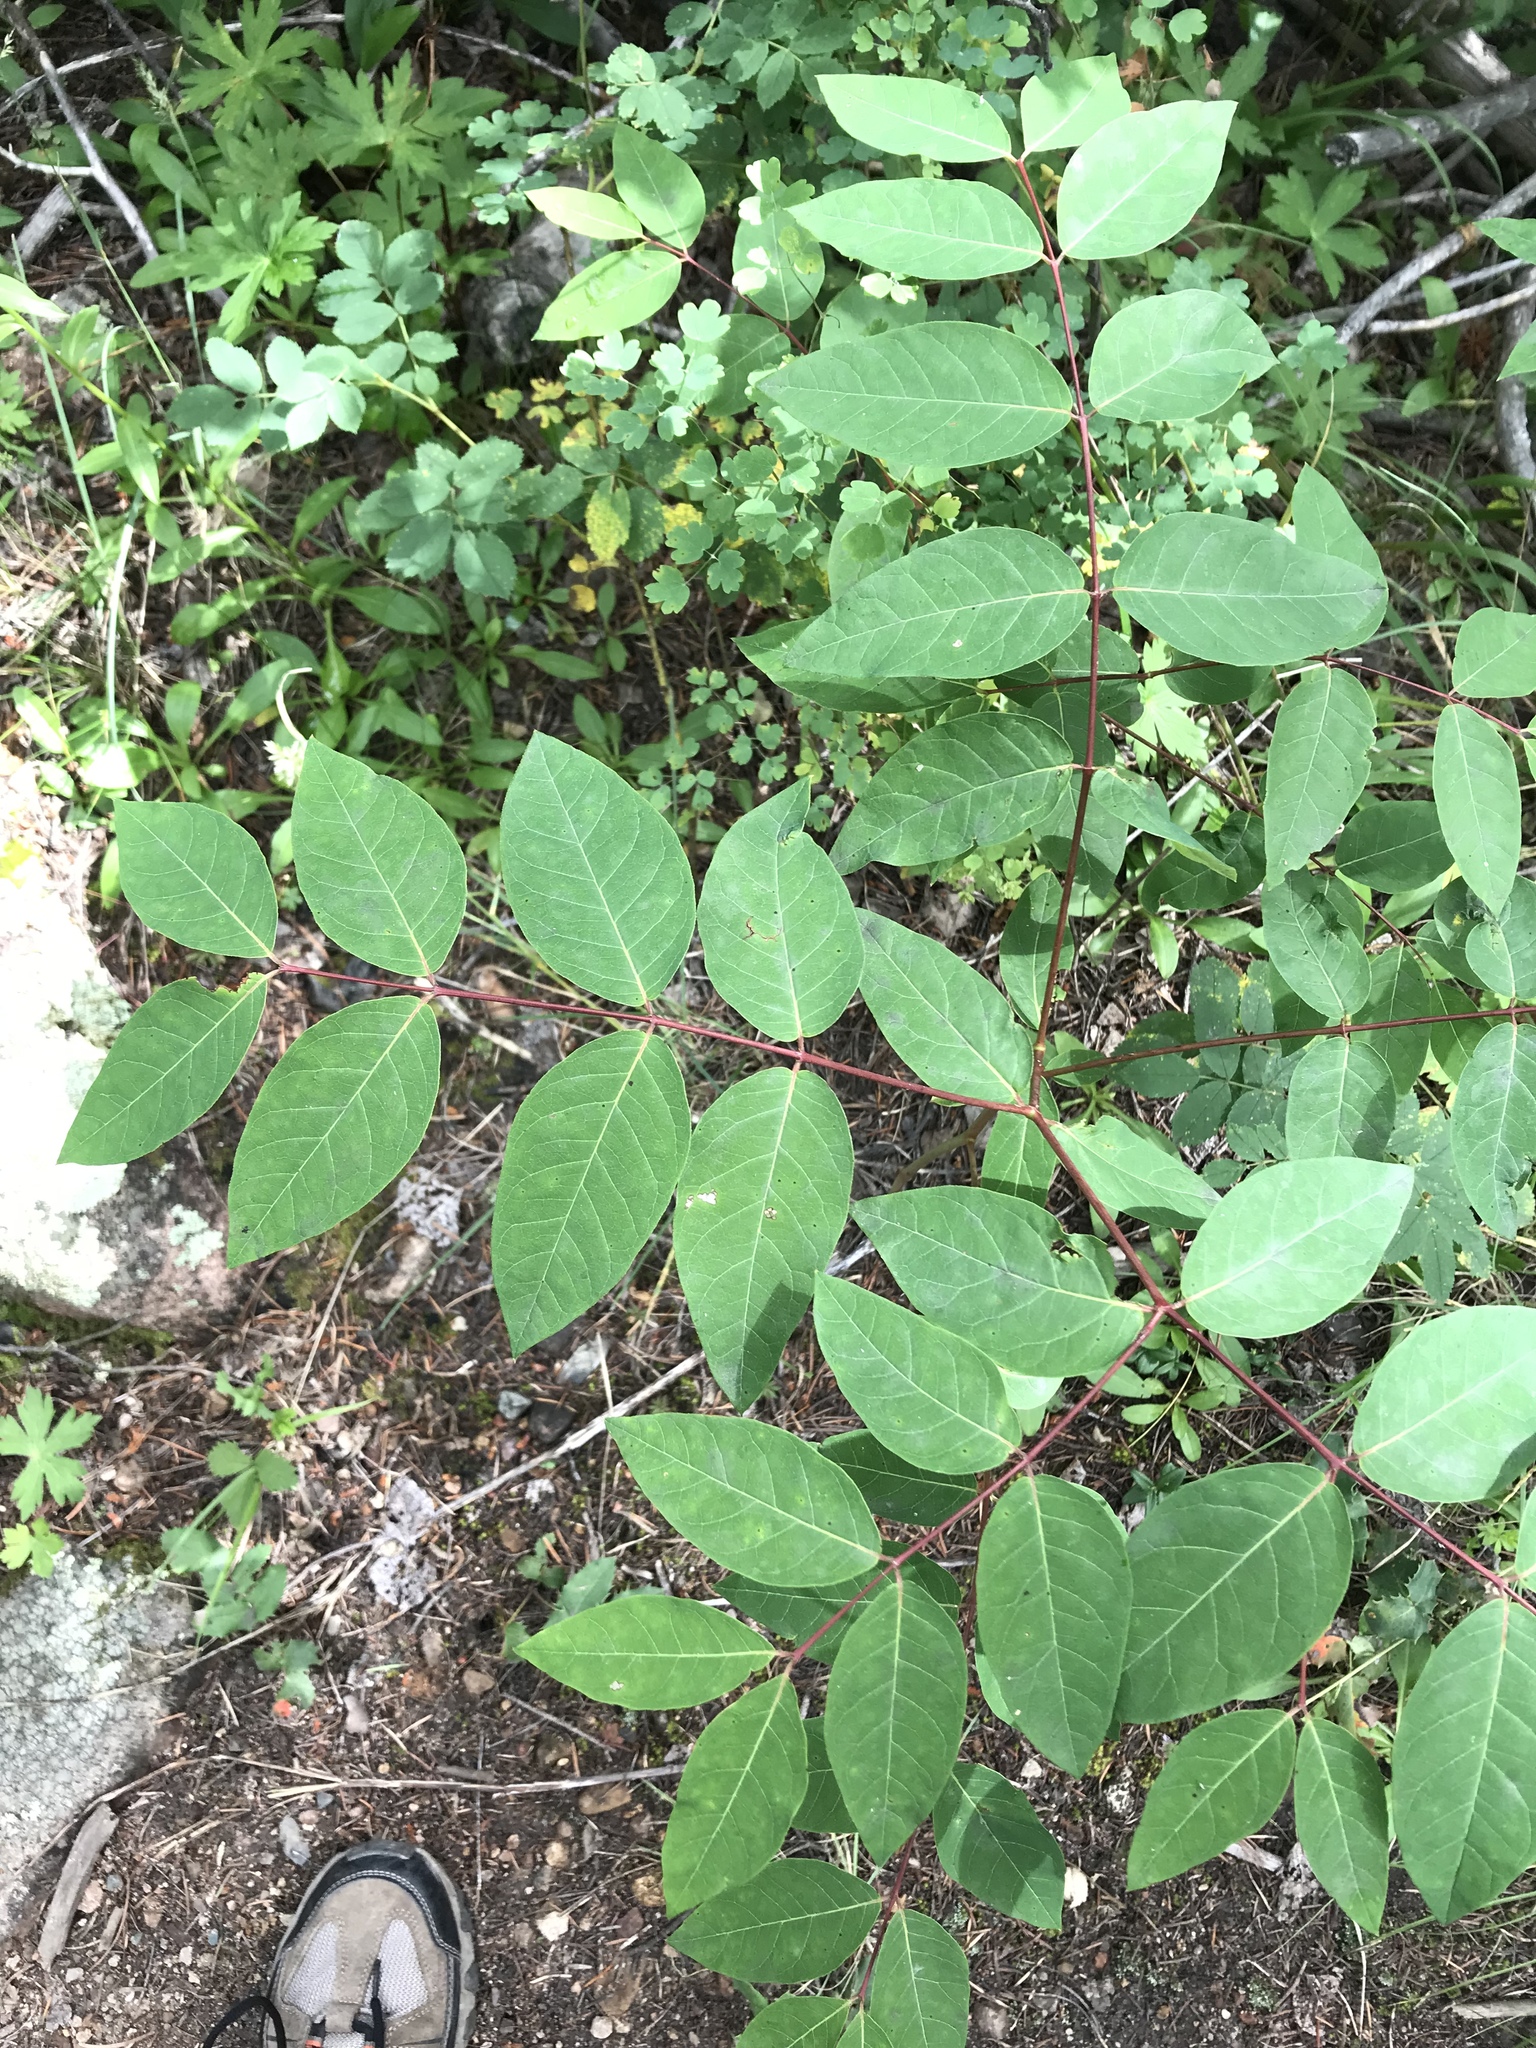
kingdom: Plantae
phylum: Tracheophyta
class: Magnoliopsida
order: Gentianales
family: Apocynaceae
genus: Apocynum
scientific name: Apocynum androsaemifolium
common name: Spreading dogbane
